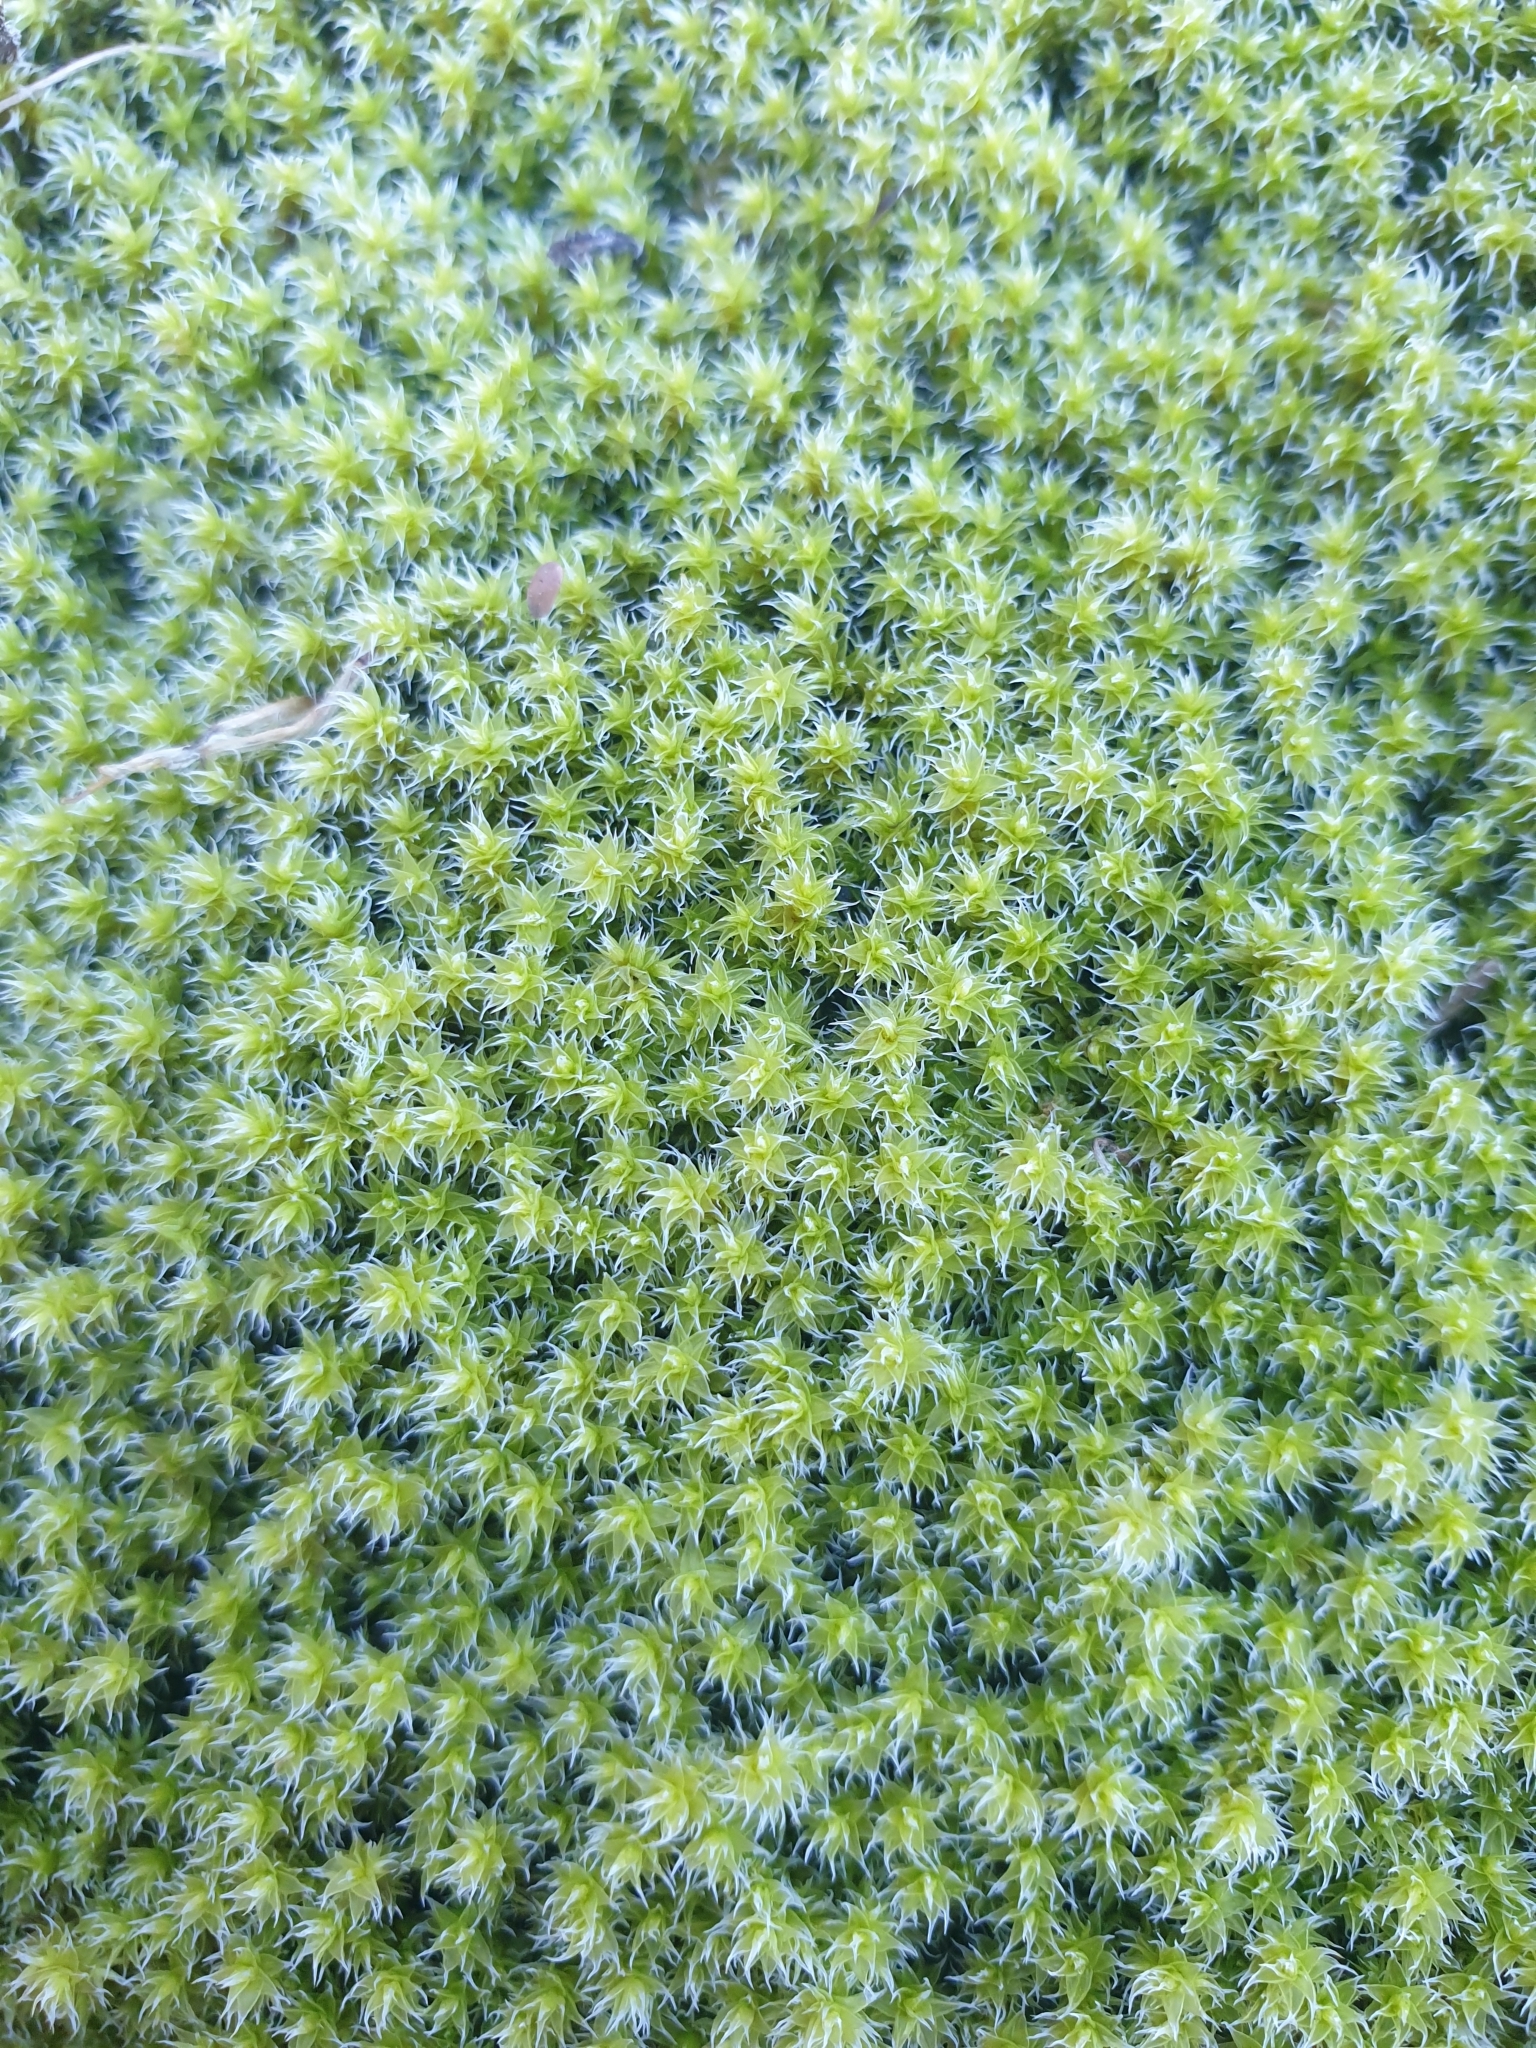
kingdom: Plantae
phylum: Bryophyta
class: Bryopsida
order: Grimmiales
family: Grimmiaceae
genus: Niphotrichum
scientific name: Niphotrichum canescens
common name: Hoary fringe-moss
